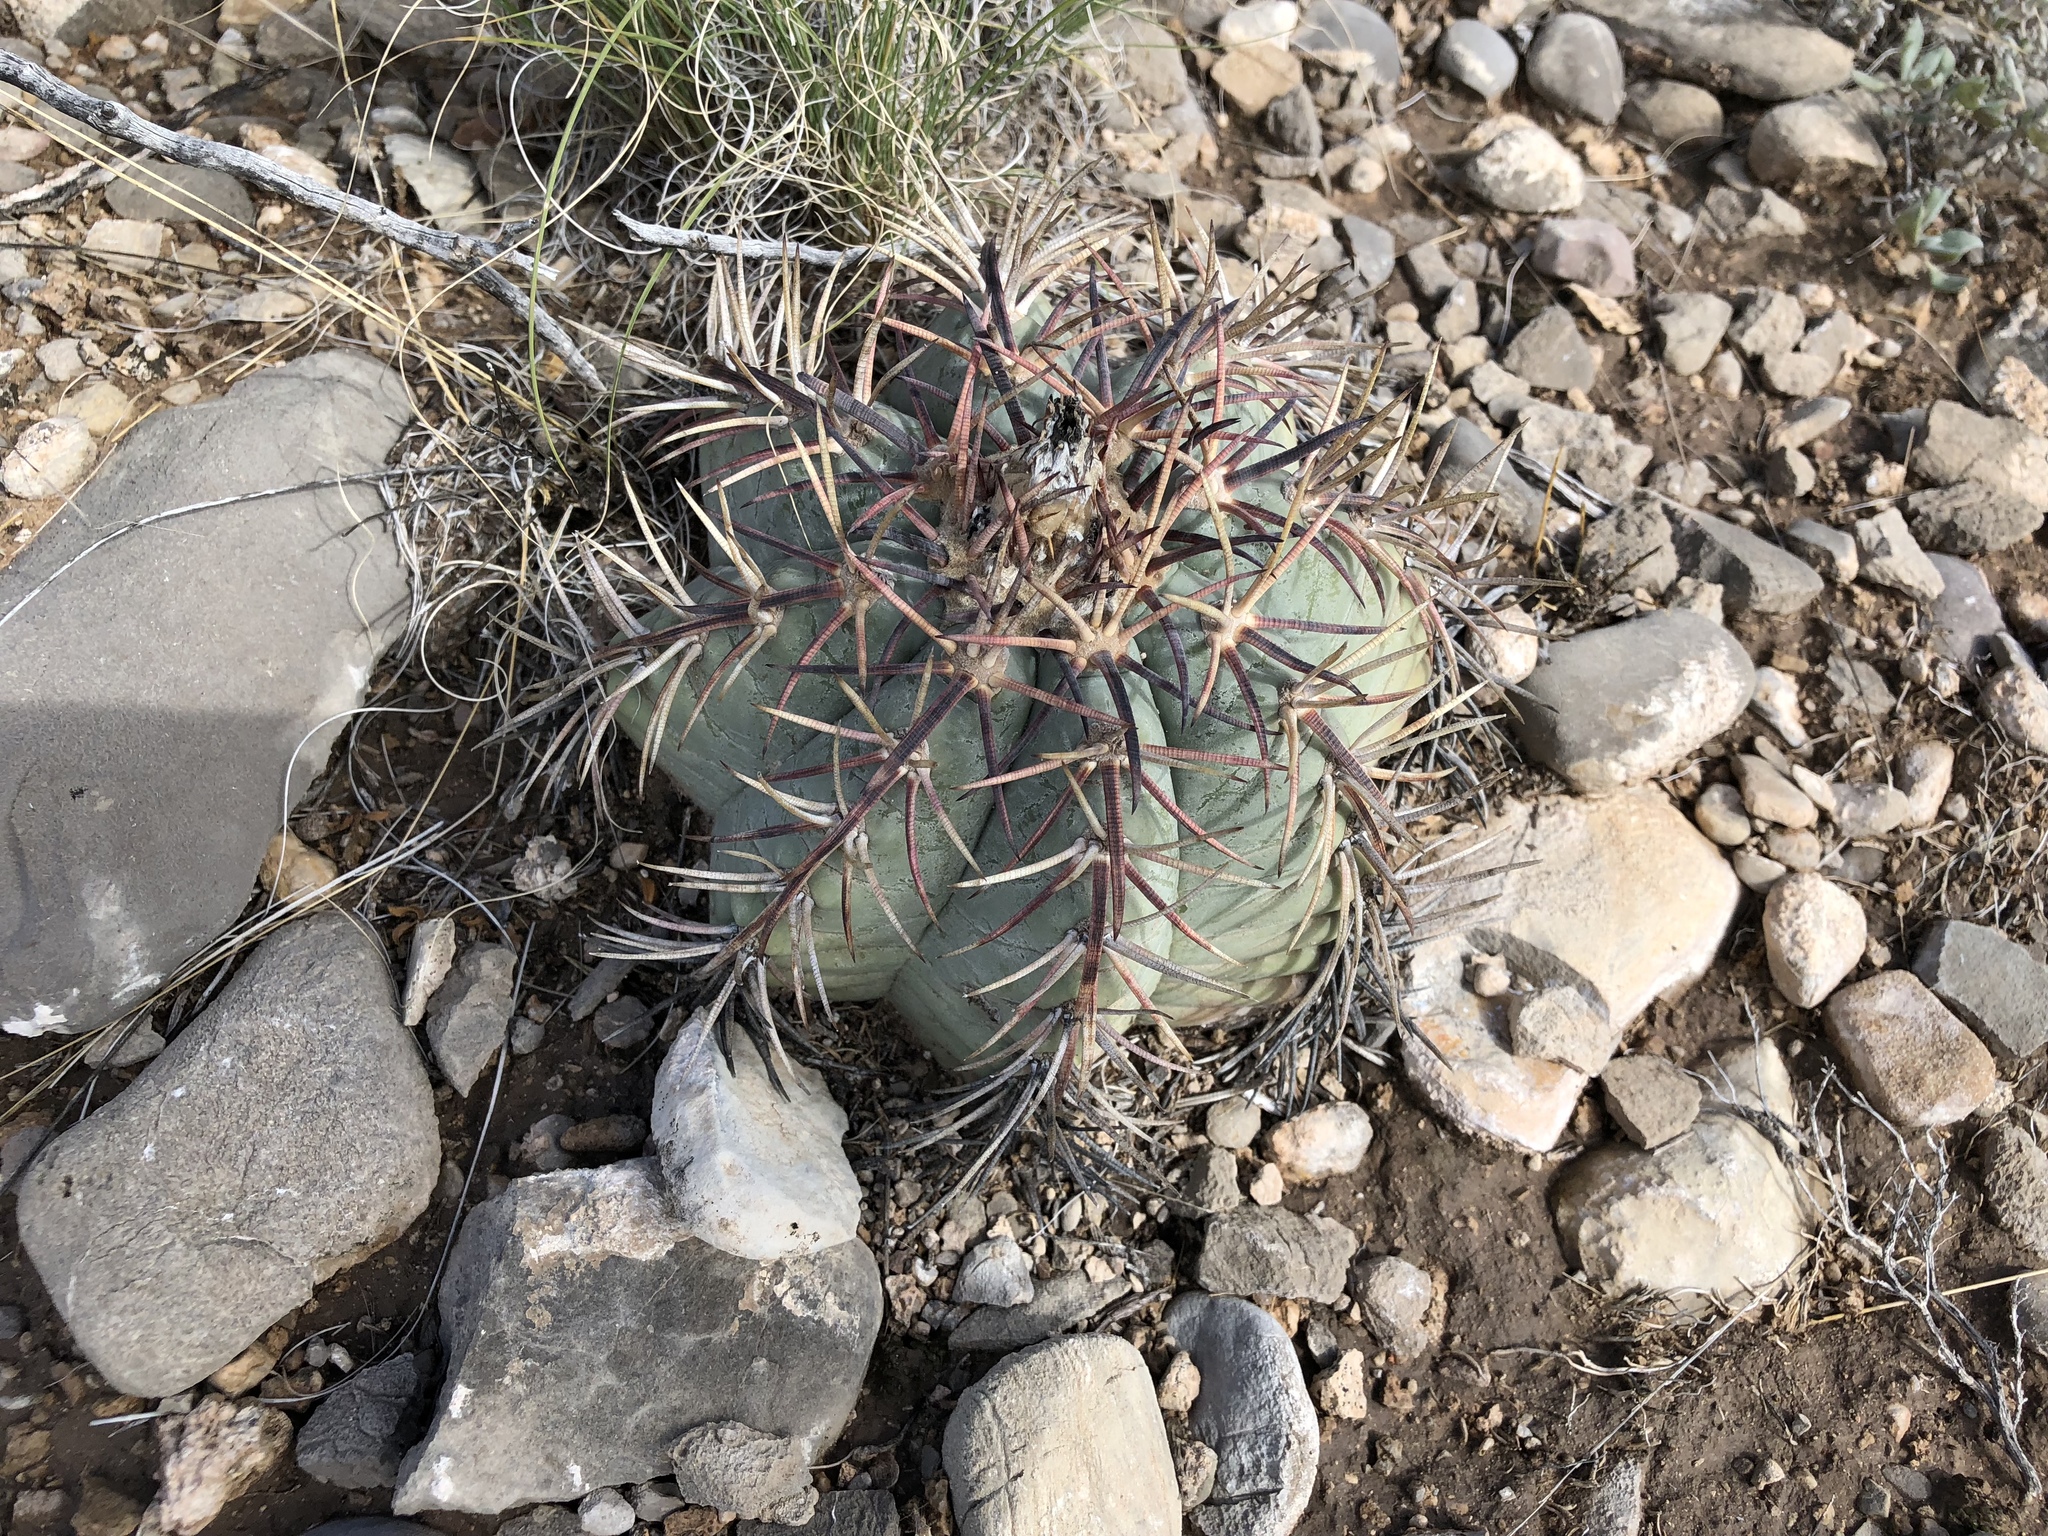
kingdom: Plantae
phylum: Tracheophyta
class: Magnoliopsida
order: Caryophyllales
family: Cactaceae
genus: Echinocactus
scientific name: Echinocactus horizonthalonius
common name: Devilshead
